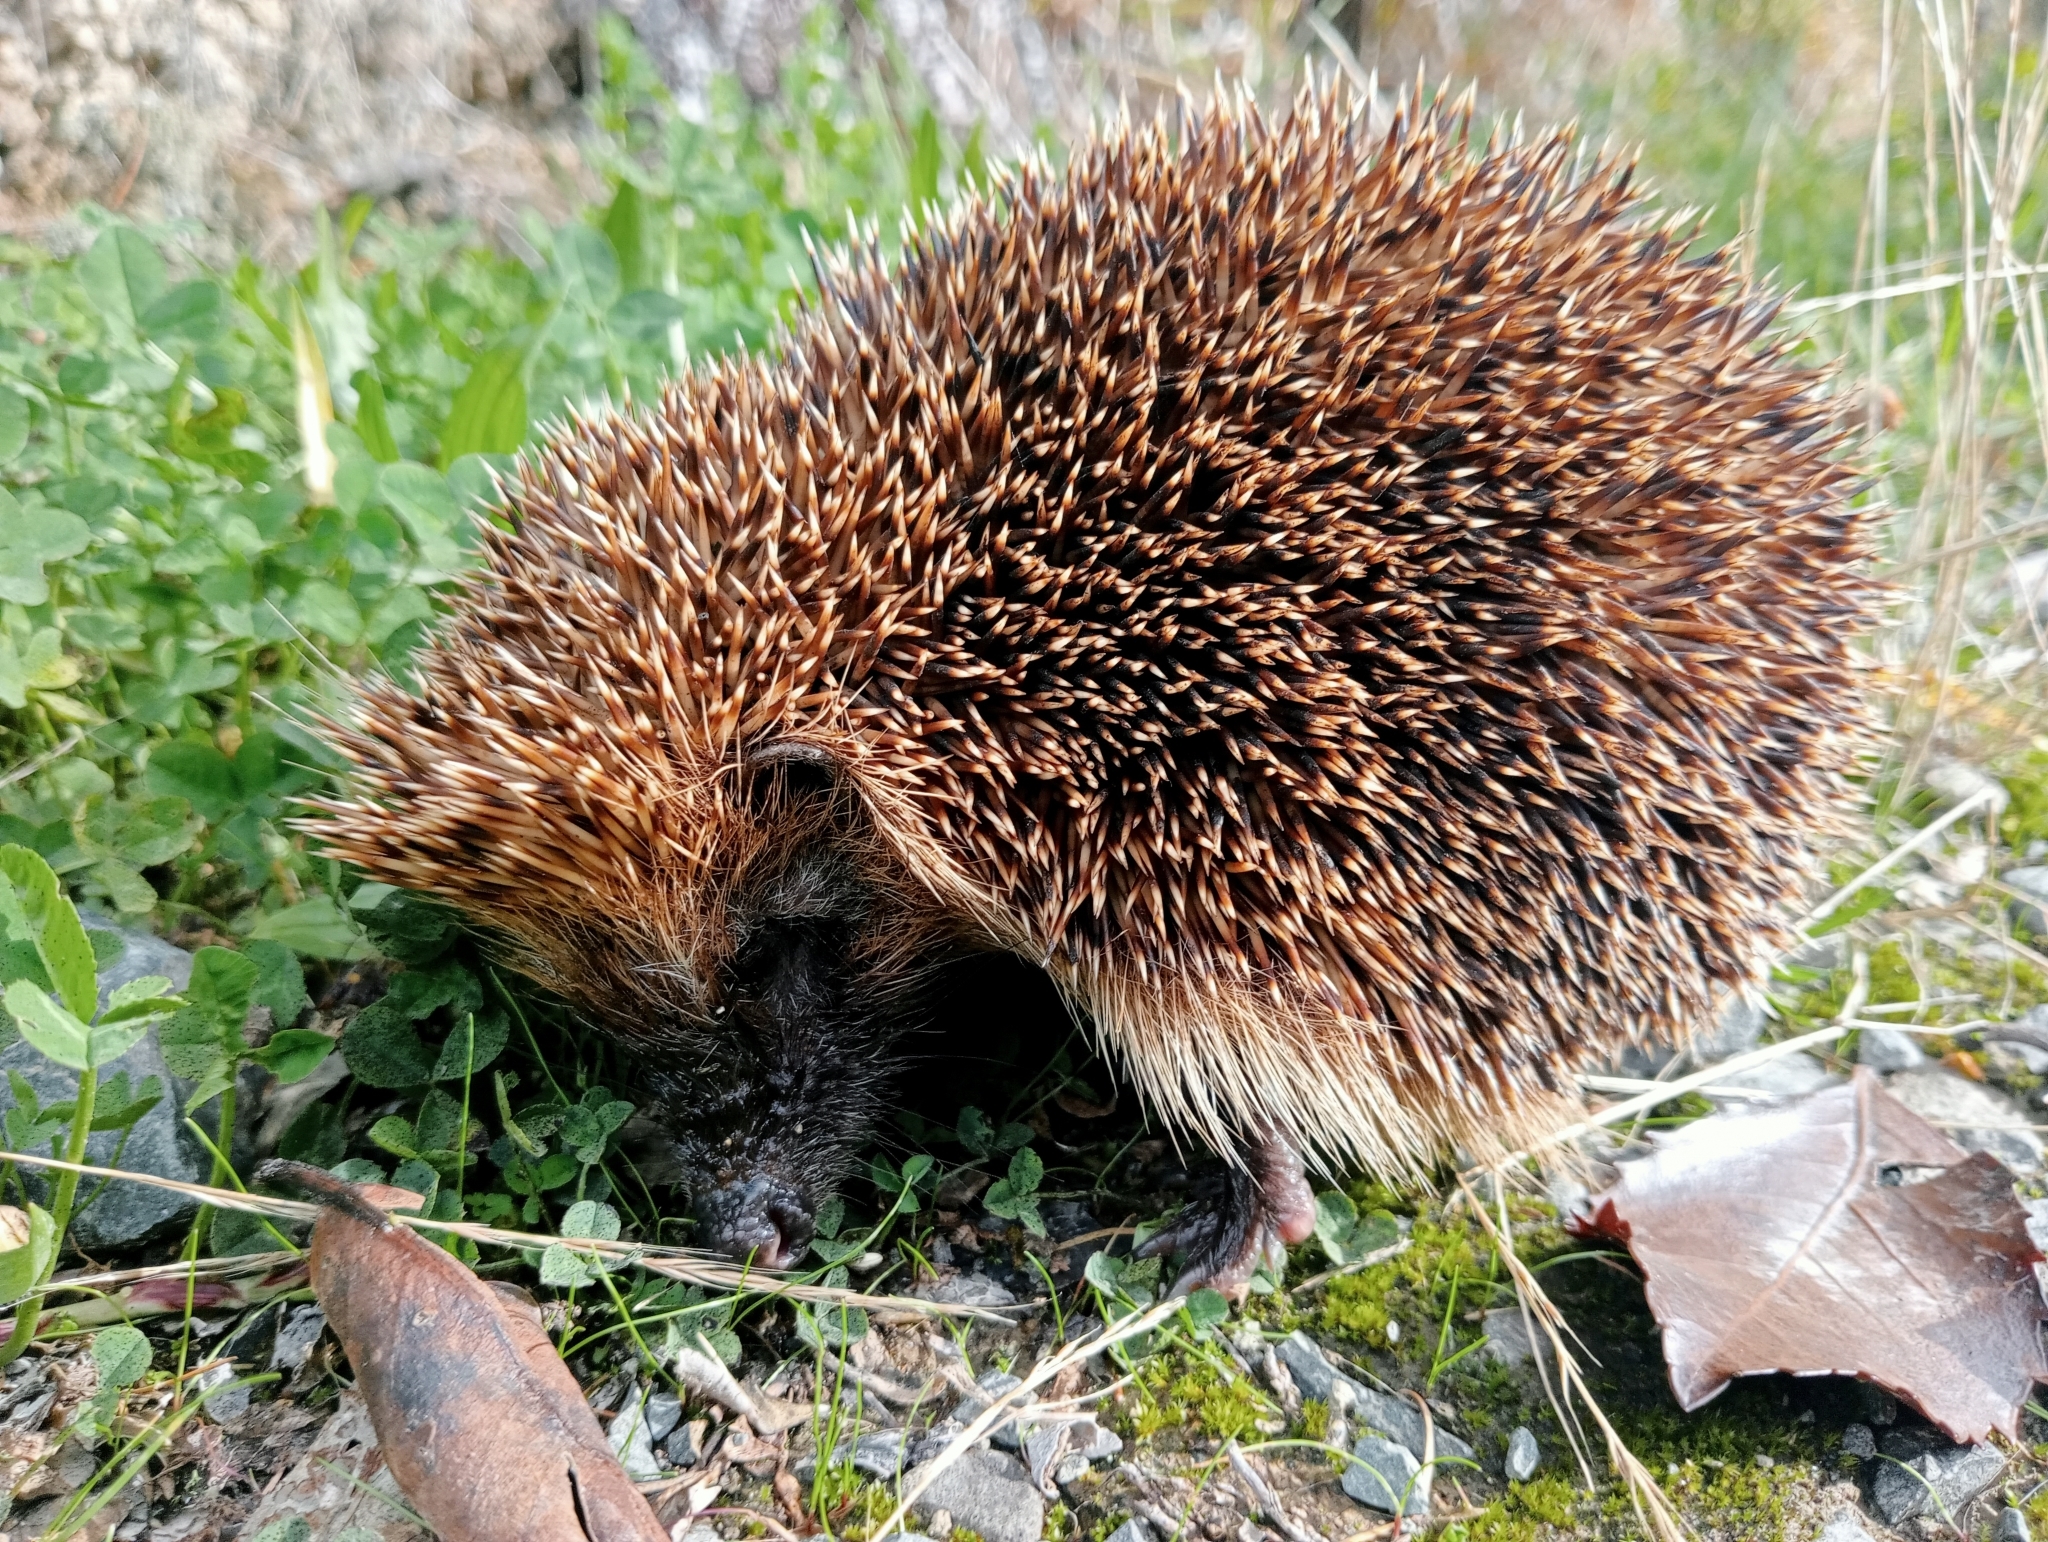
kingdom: Animalia
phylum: Chordata
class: Mammalia
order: Erinaceomorpha
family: Erinaceidae
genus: Erinaceus
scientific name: Erinaceus europaeus
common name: West european hedgehog
